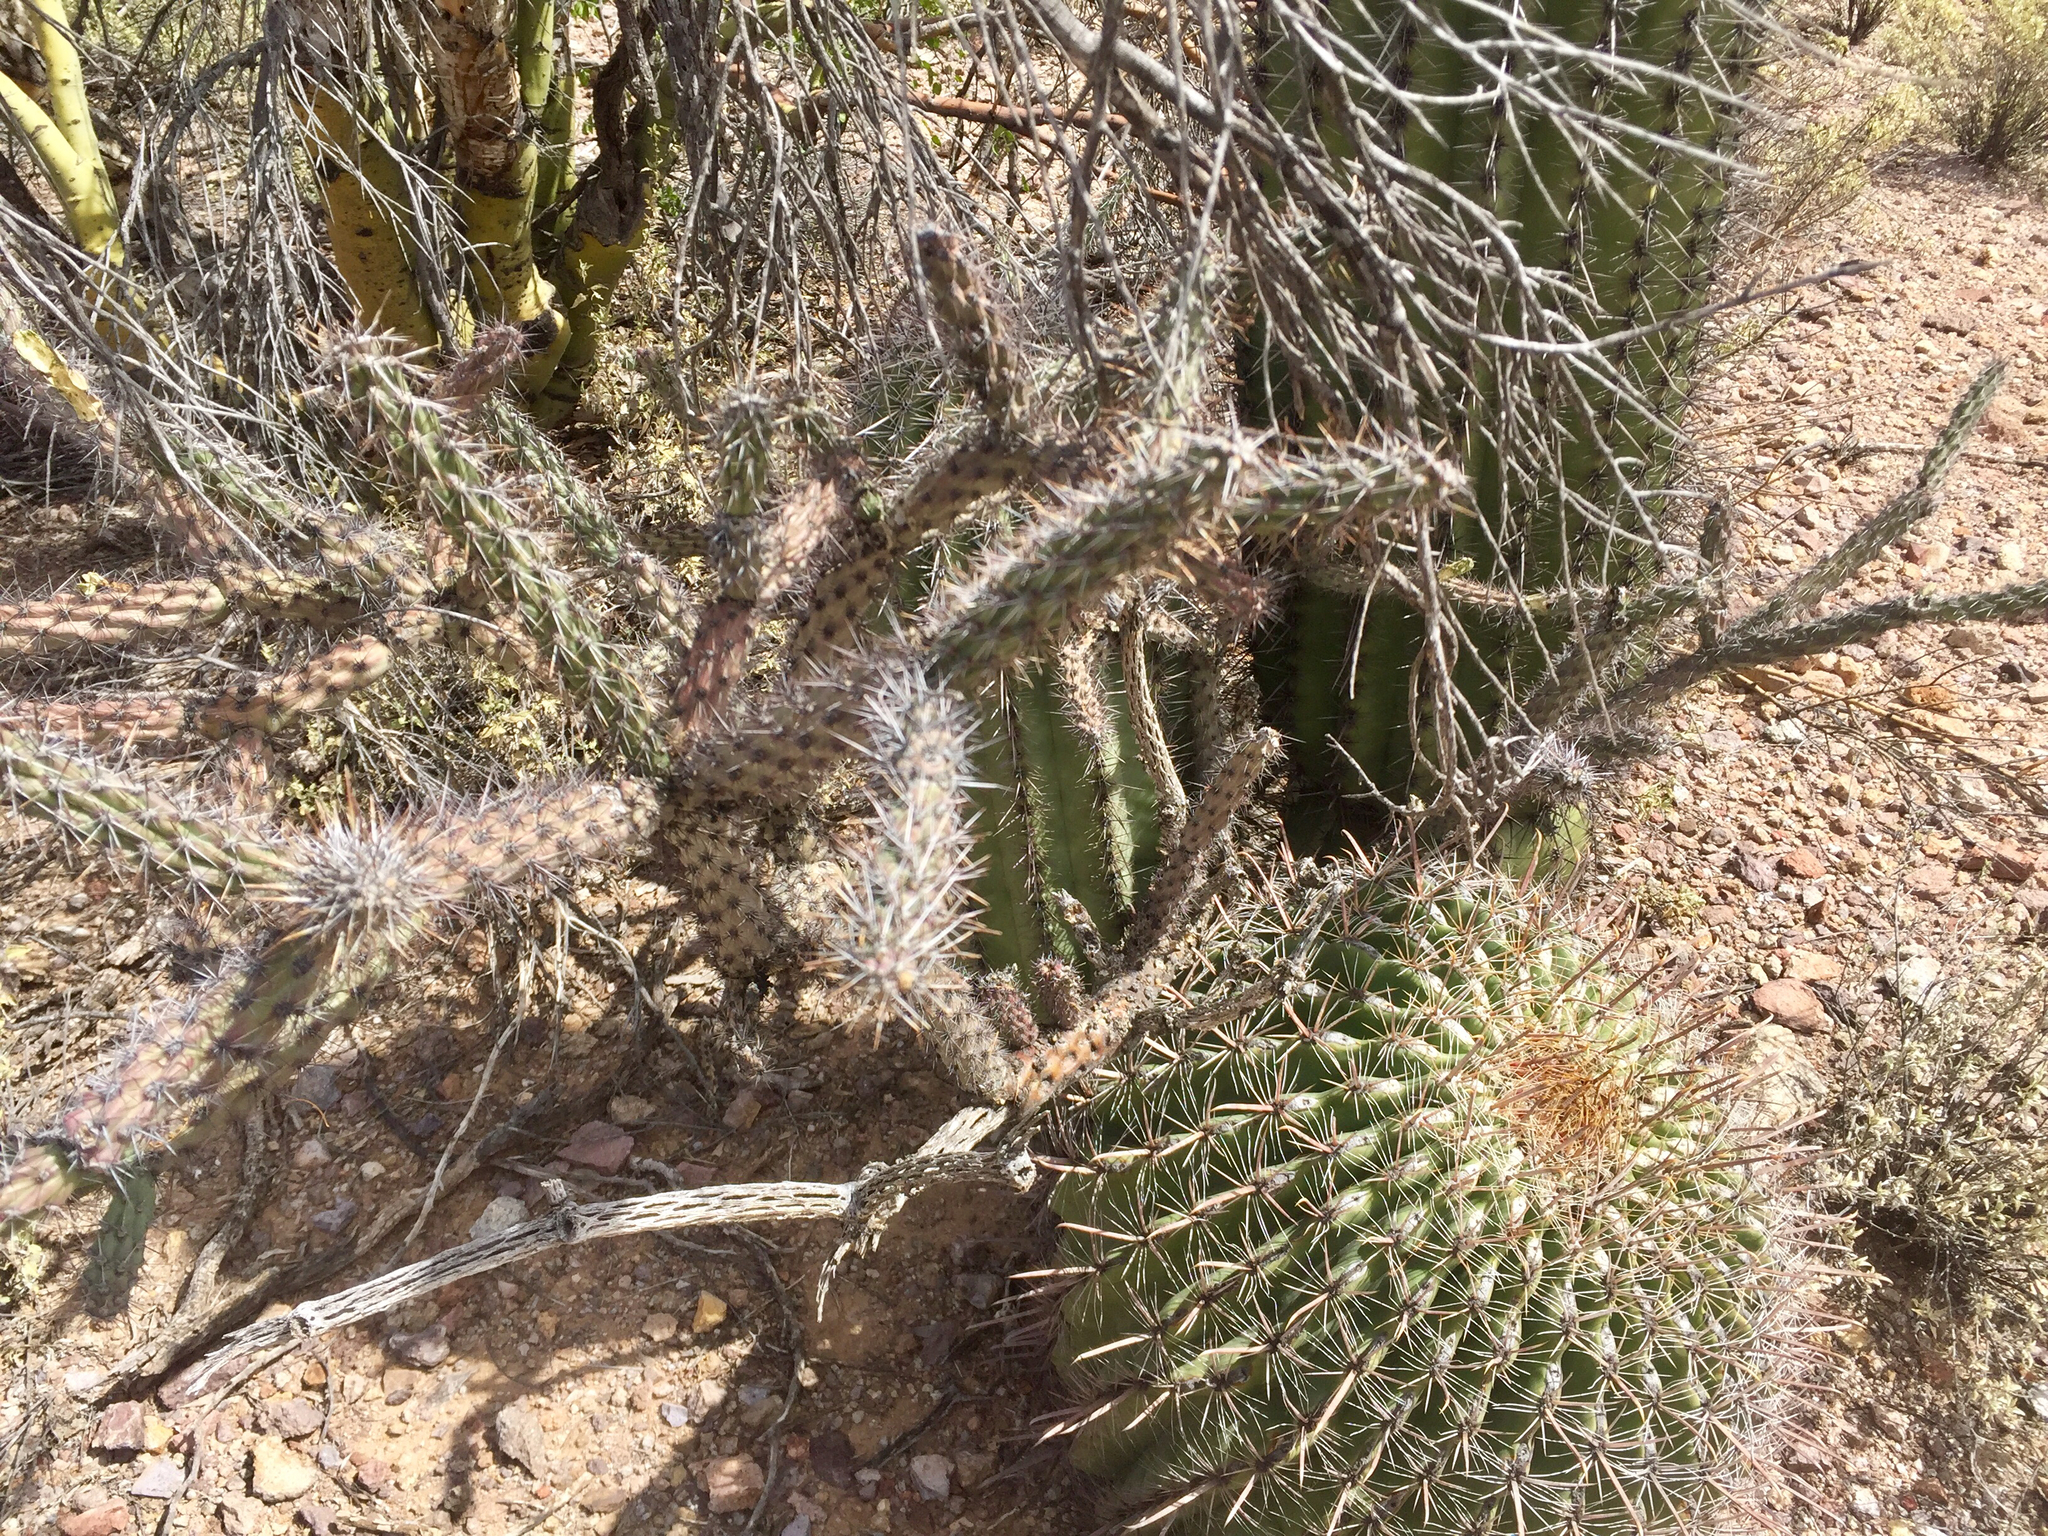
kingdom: Plantae
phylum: Tracheophyta
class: Magnoliopsida
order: Caryophyllales
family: Cactaceae
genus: Ferocactus
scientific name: Ferocactus wislizeni
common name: Candy barrel cactus
